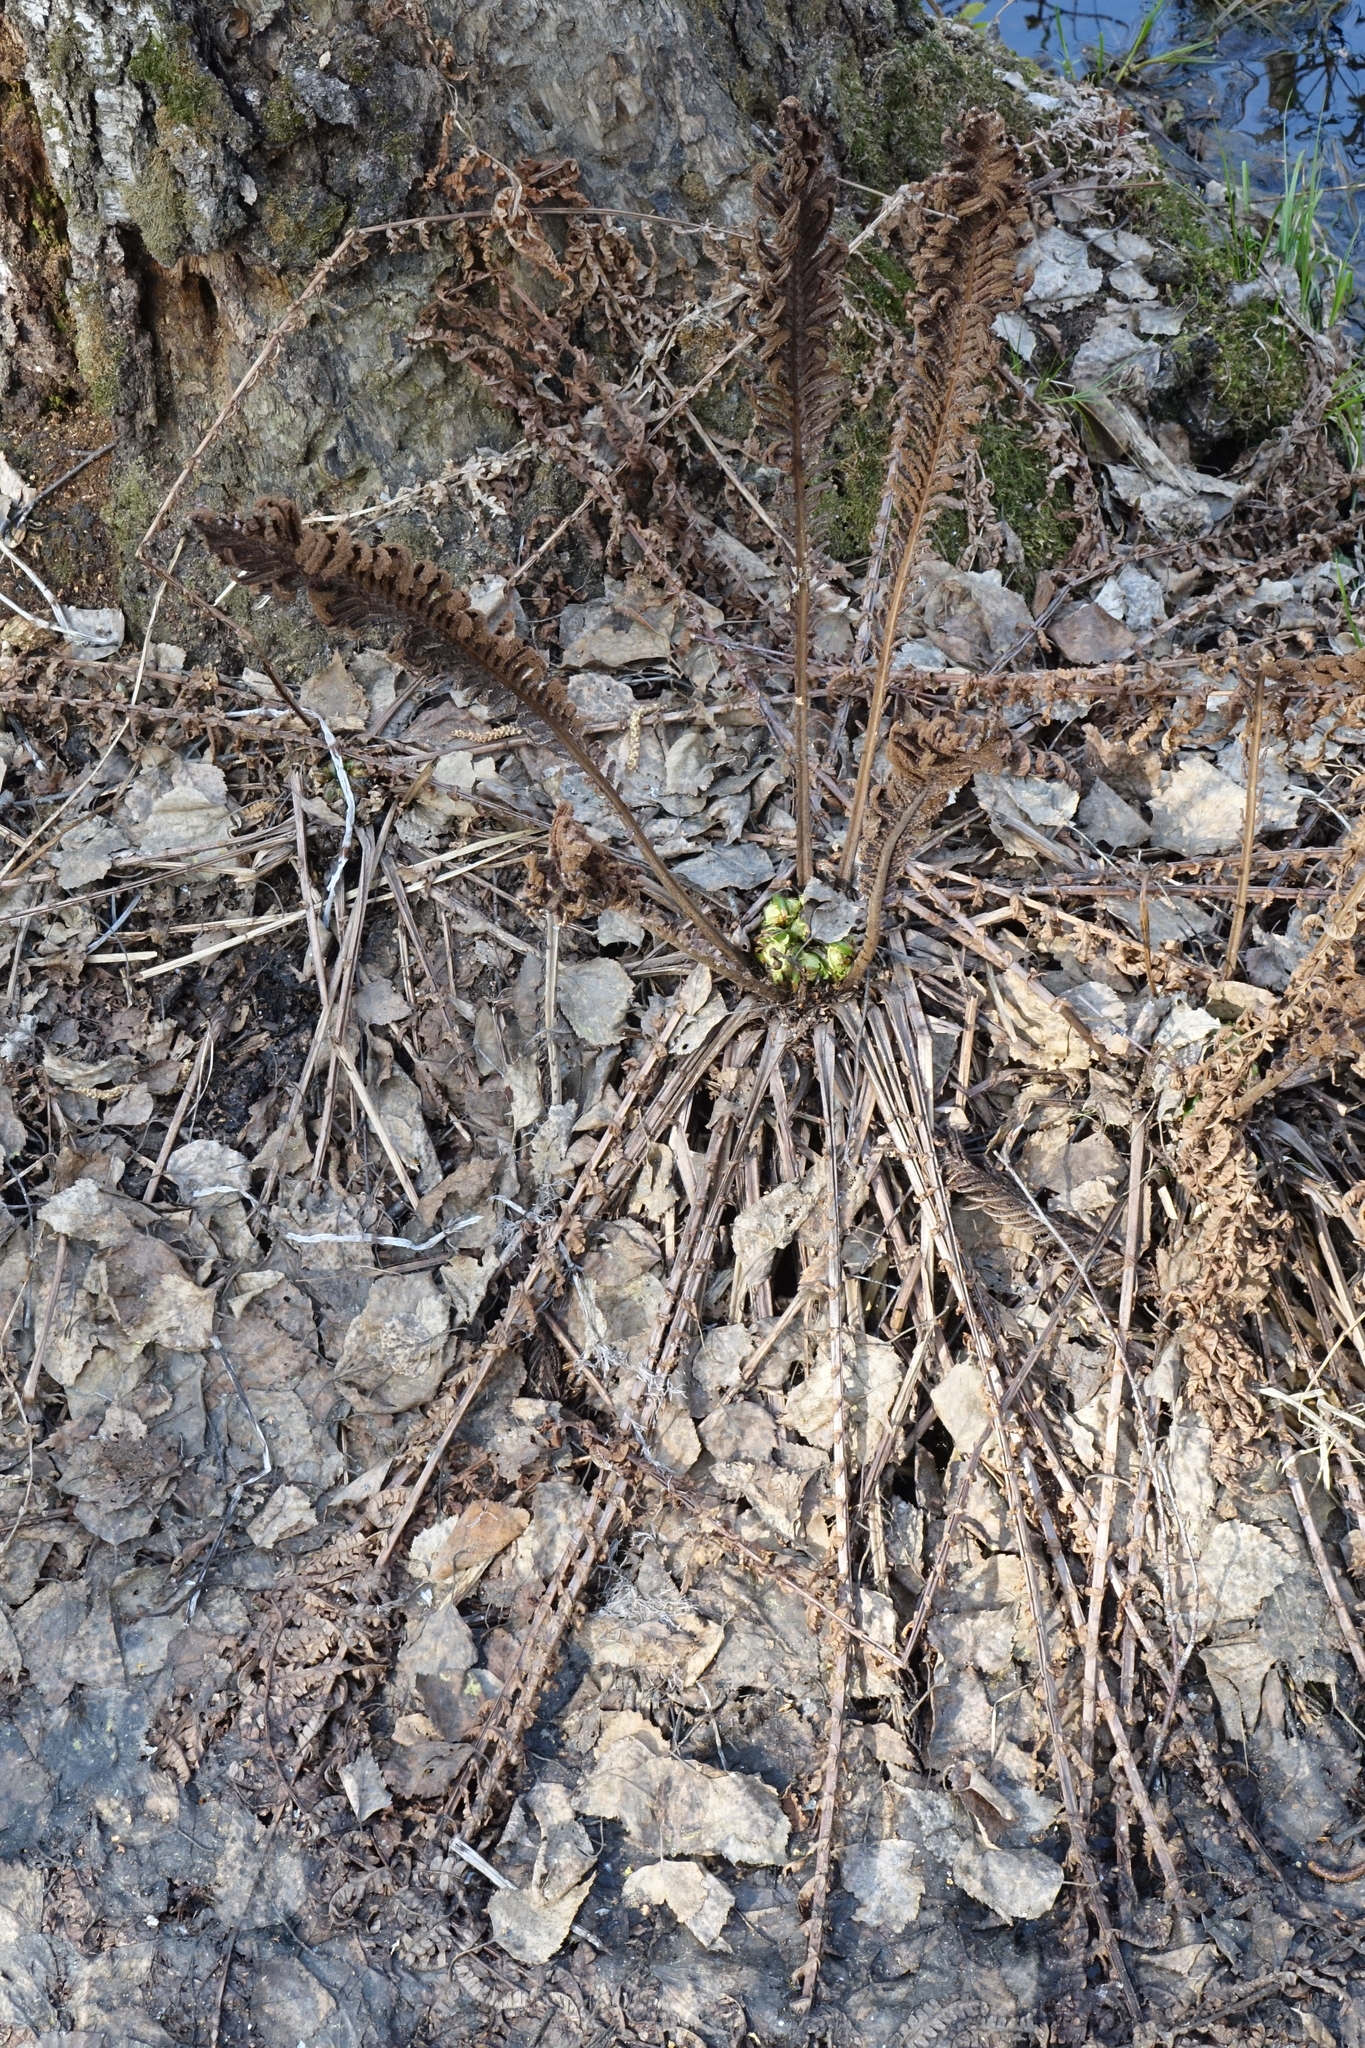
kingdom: Plantae
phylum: Tracheophyta
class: Polypodiopsida
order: Polypodiales
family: Onocleaceae
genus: Matteuccia
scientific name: Matteuccia struthiopteris
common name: Ostrich fern
